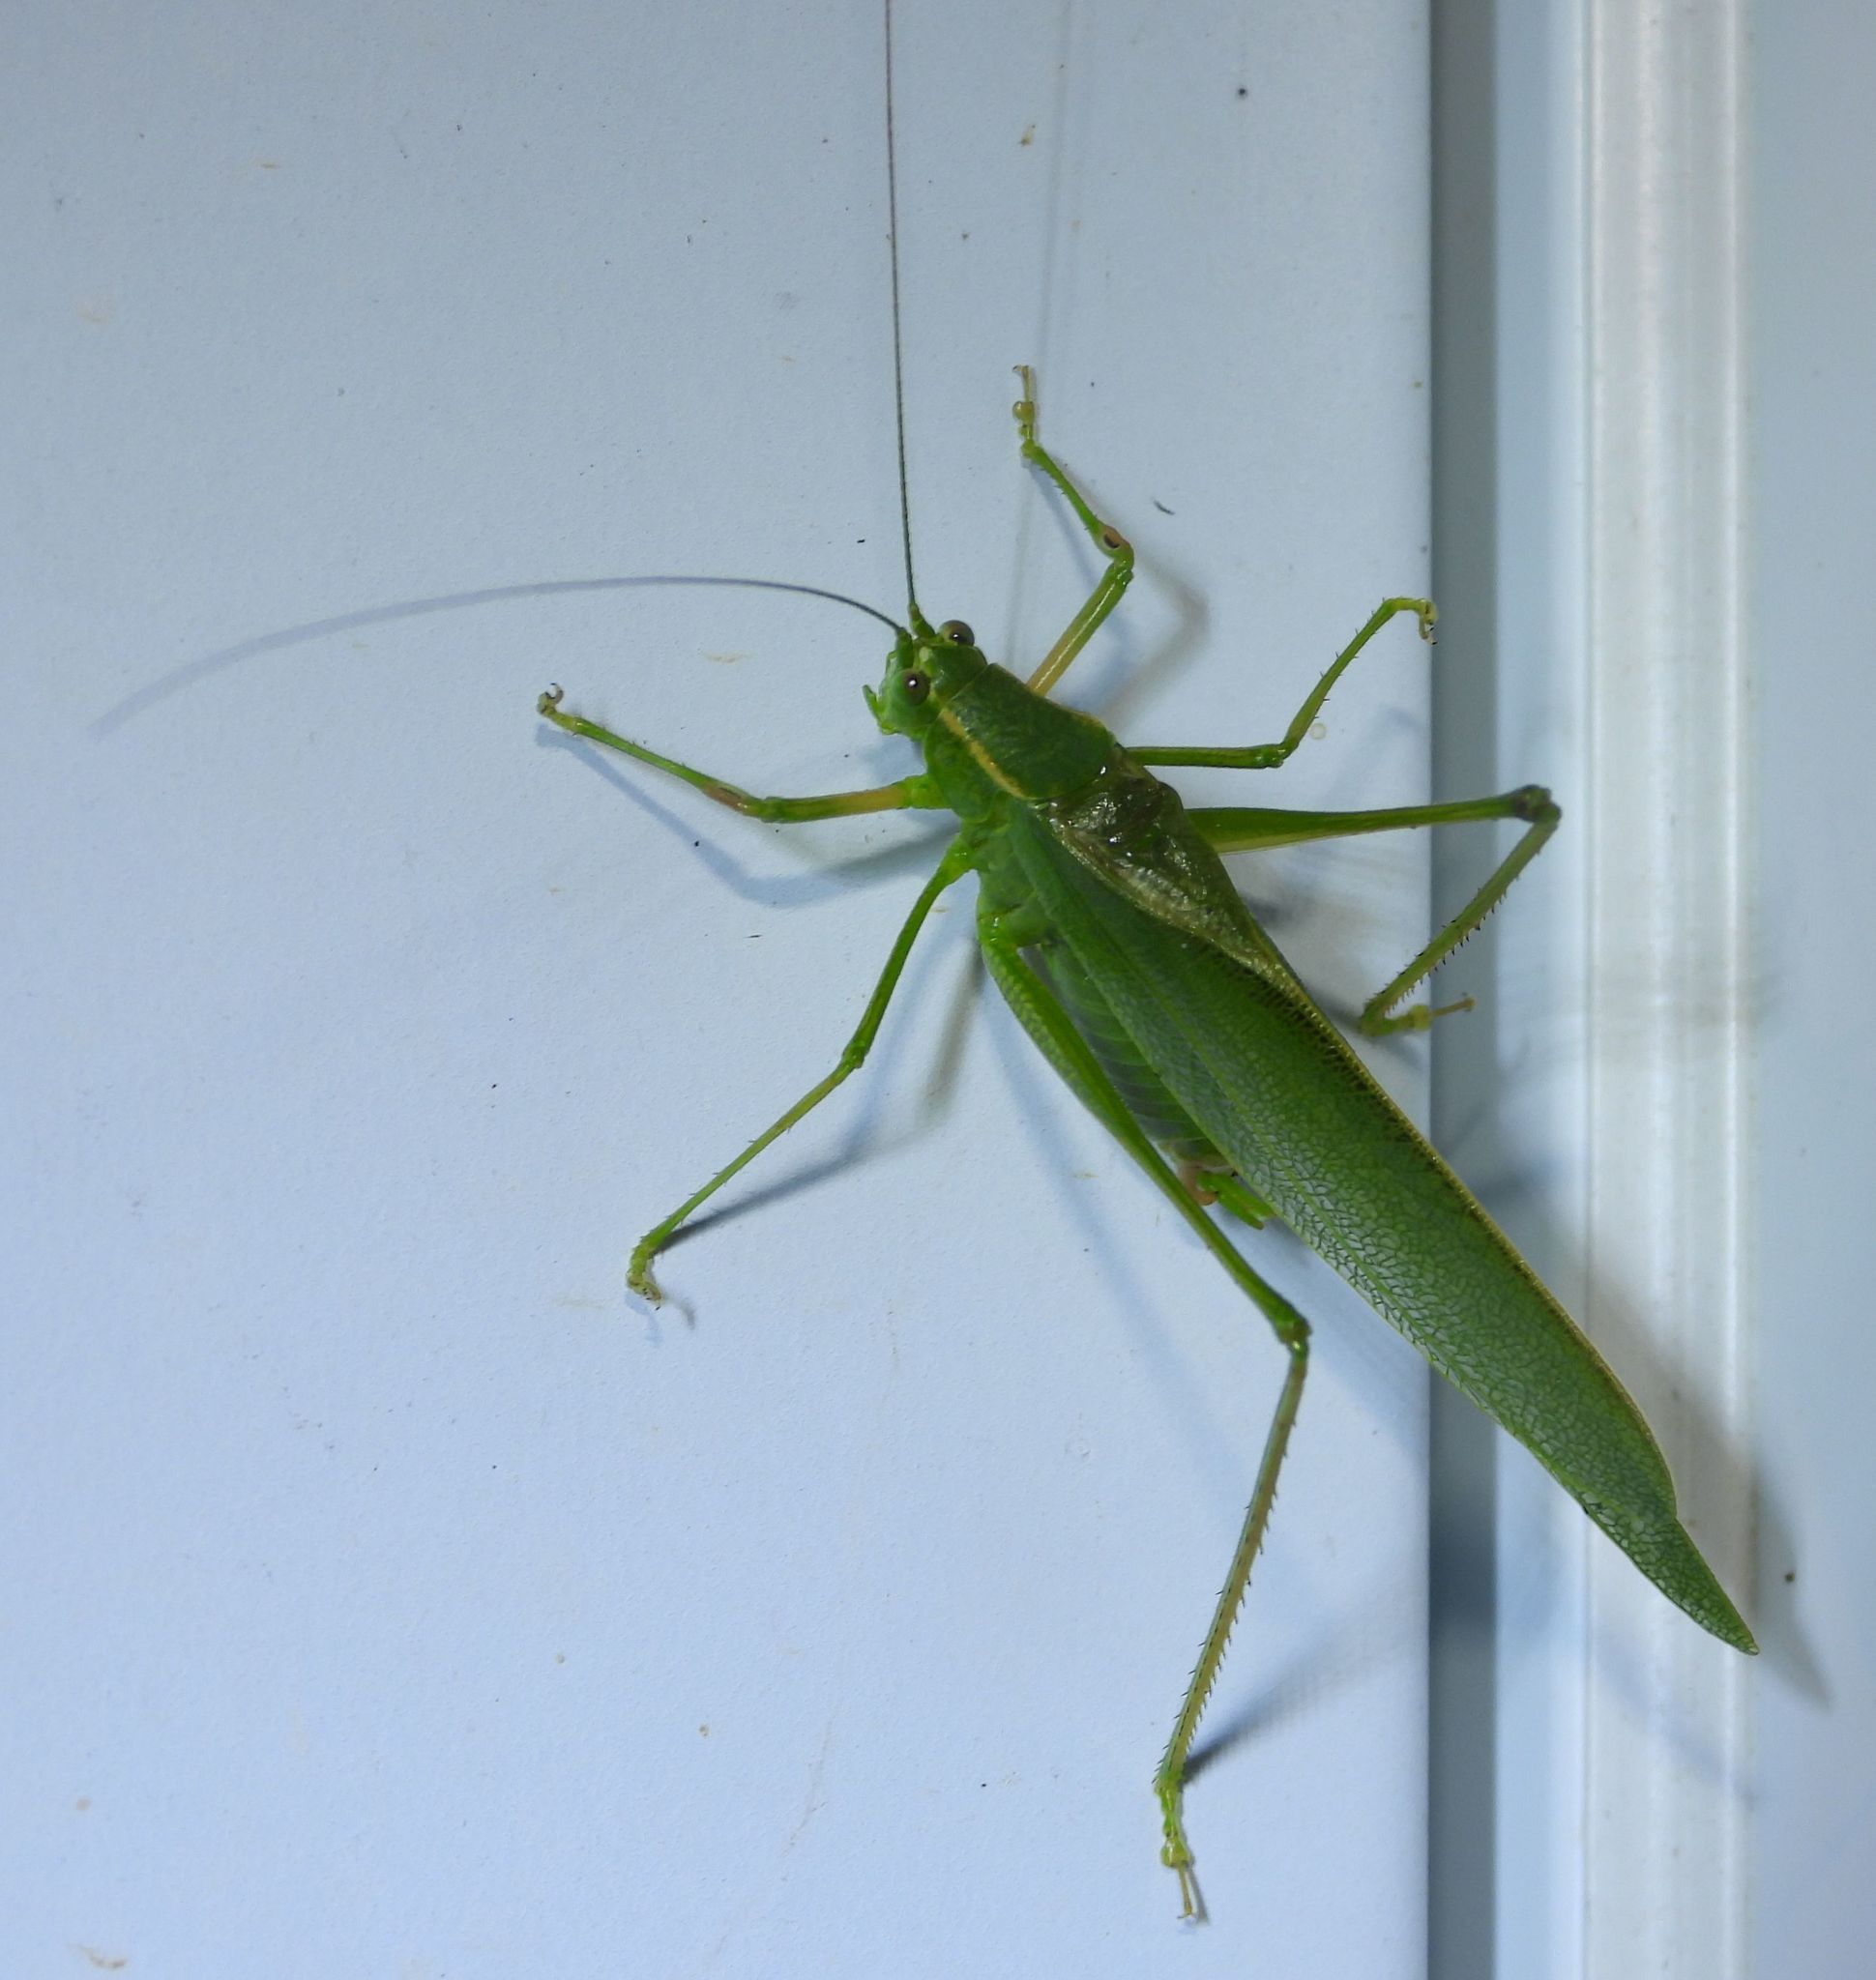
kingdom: Animalia
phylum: Arthropoda
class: Insecta
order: Orthoptera
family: Tettigoniidae
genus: Scudderia
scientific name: Scudderia septentrionalis
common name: Northern bush-katydid
